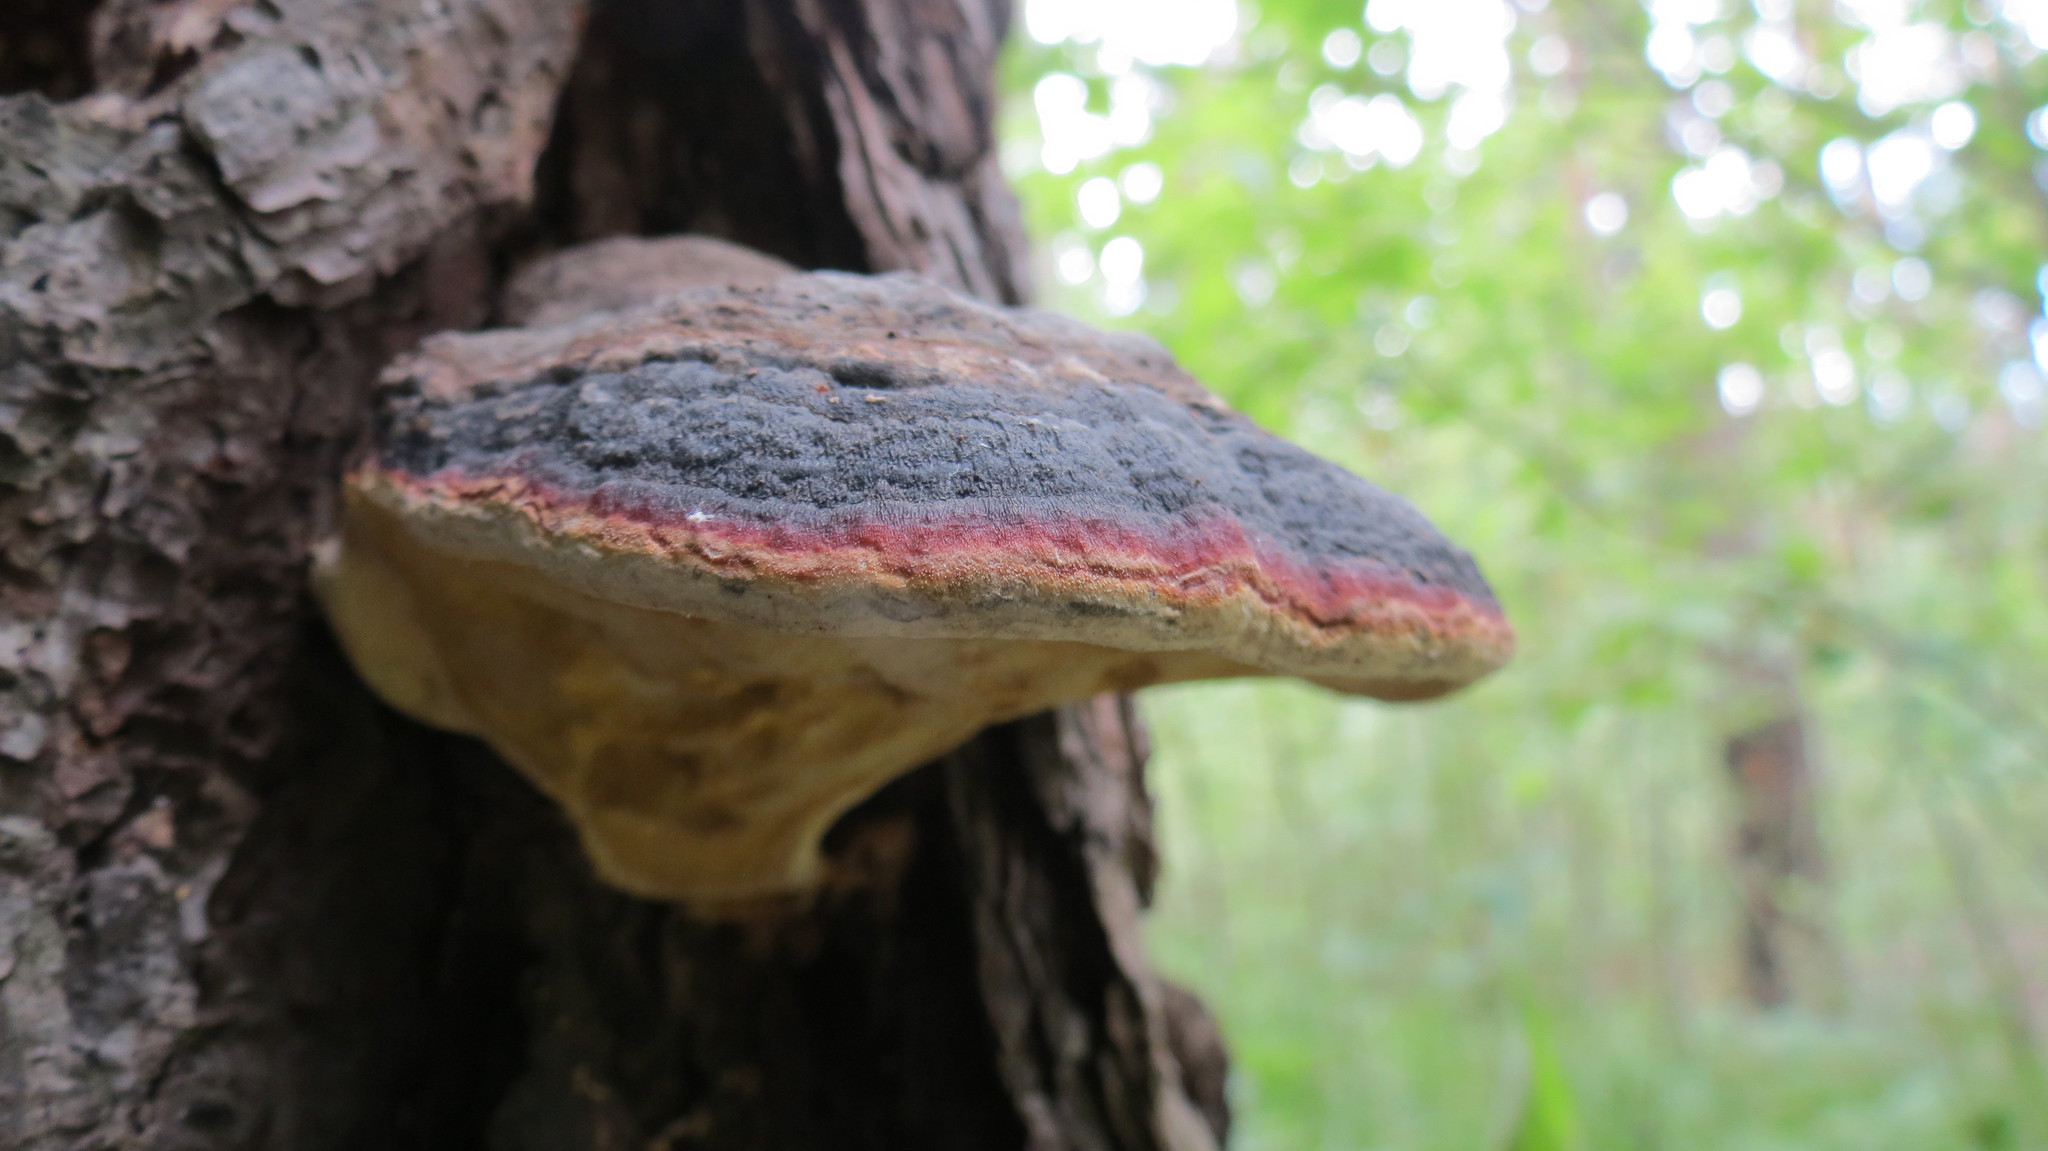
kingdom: Fungi
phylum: Basidiomycota
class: Agaricomycetes
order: Polyporales
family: Fomitopsidaceae
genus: Fomitopsis
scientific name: Fomitopsis pinicola
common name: Red-belted bracket
